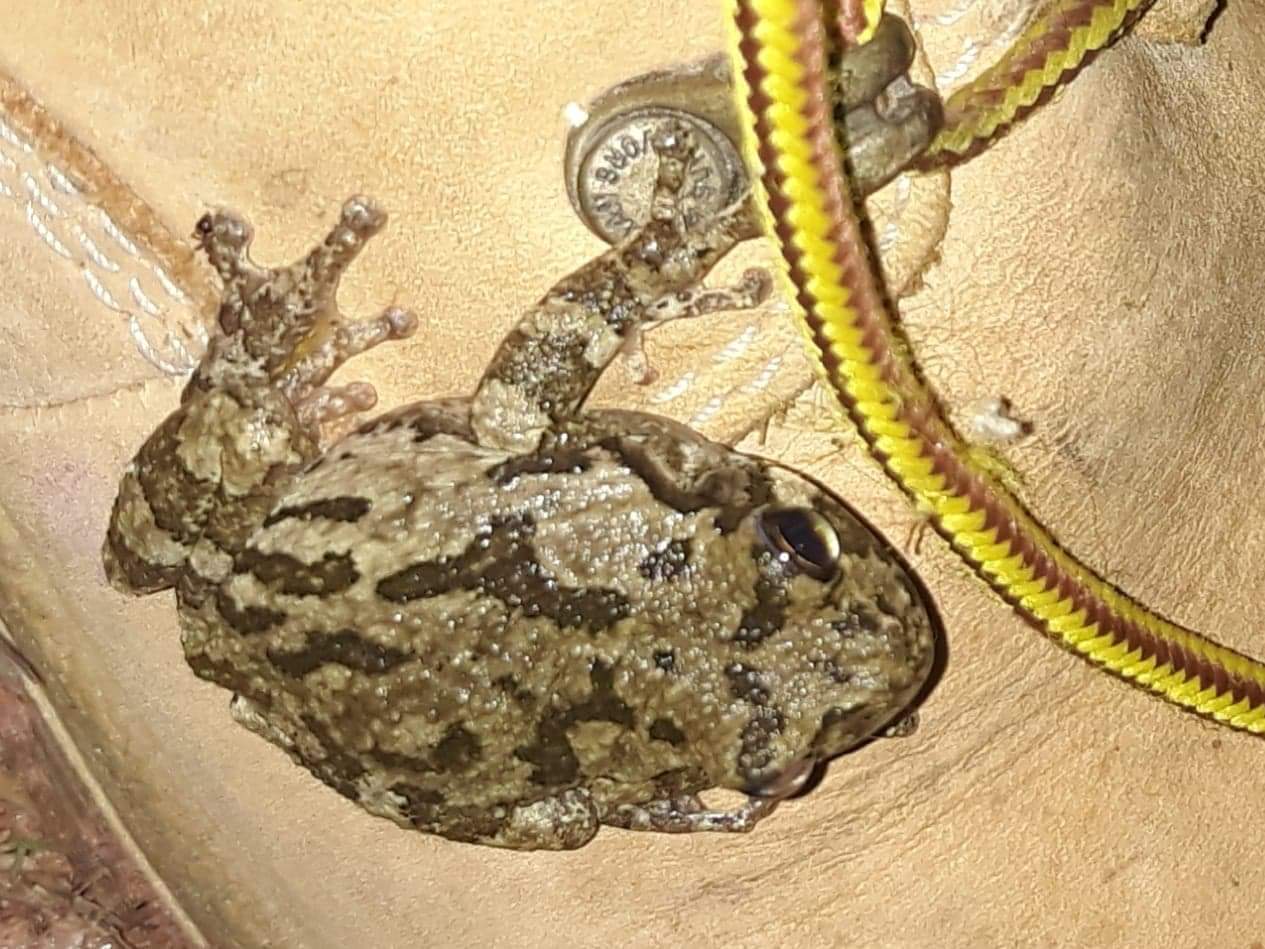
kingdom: Animalia
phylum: Chordata
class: Amphibia
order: Anura
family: Hylidae
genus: Hyla
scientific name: Hyla
